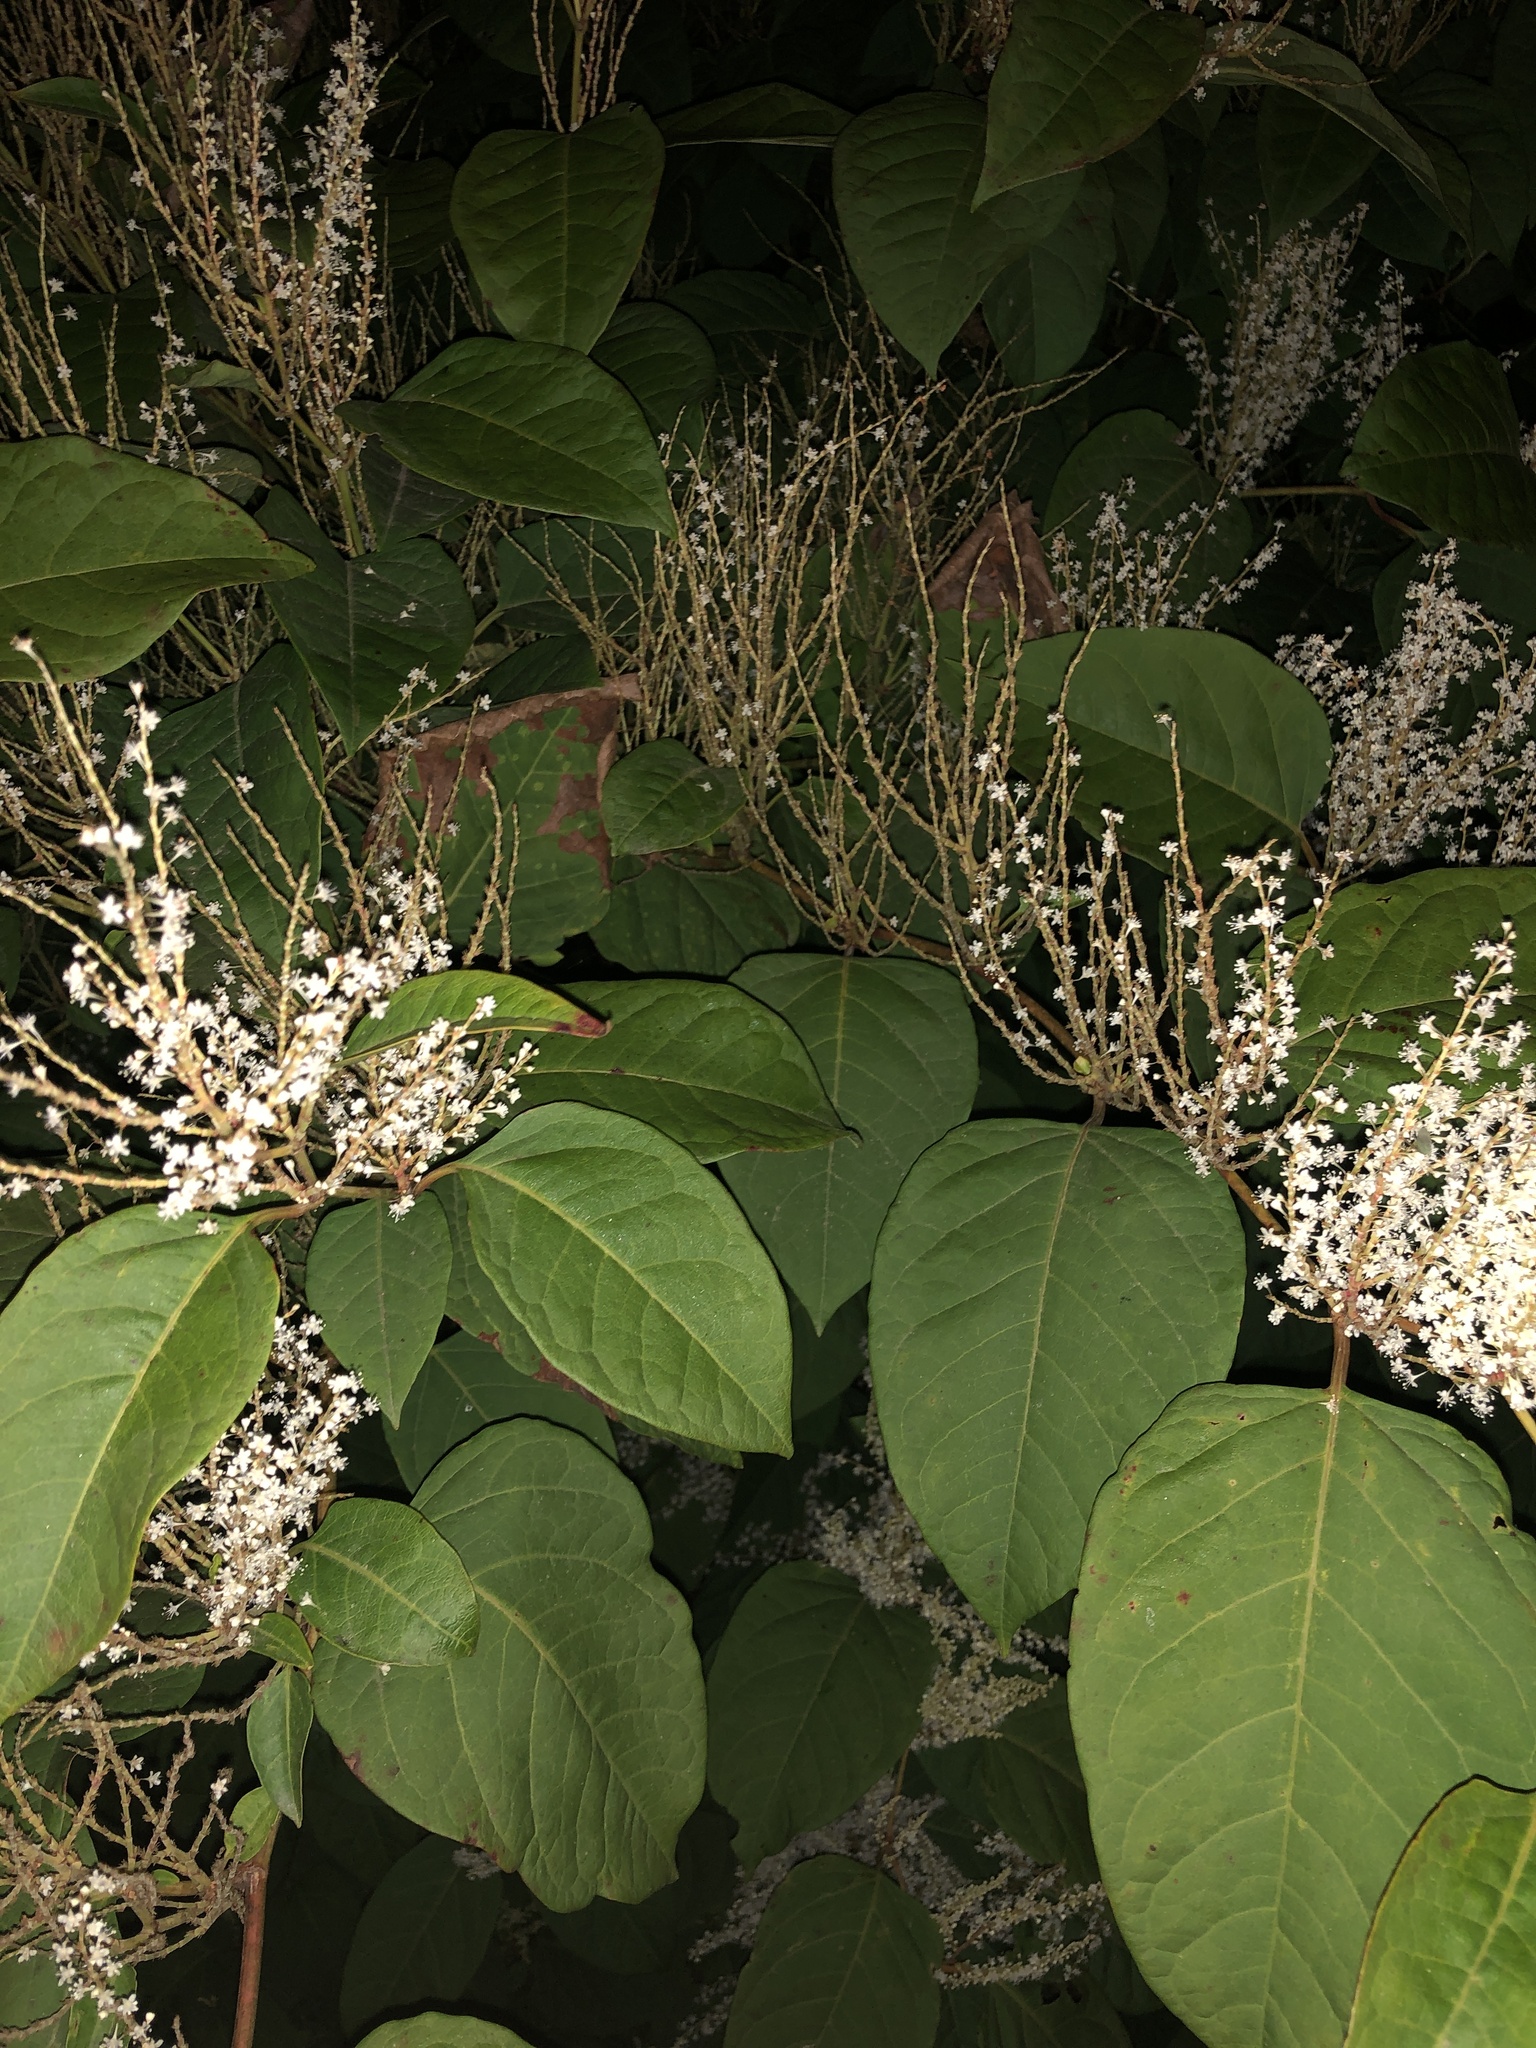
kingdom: Plantae
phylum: Tracheophyta
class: Magnoliopsida
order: Caryophyllales
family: Polygonaceae
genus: Reynoutria
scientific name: Reynoutria japonica
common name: Japanese knotweed
